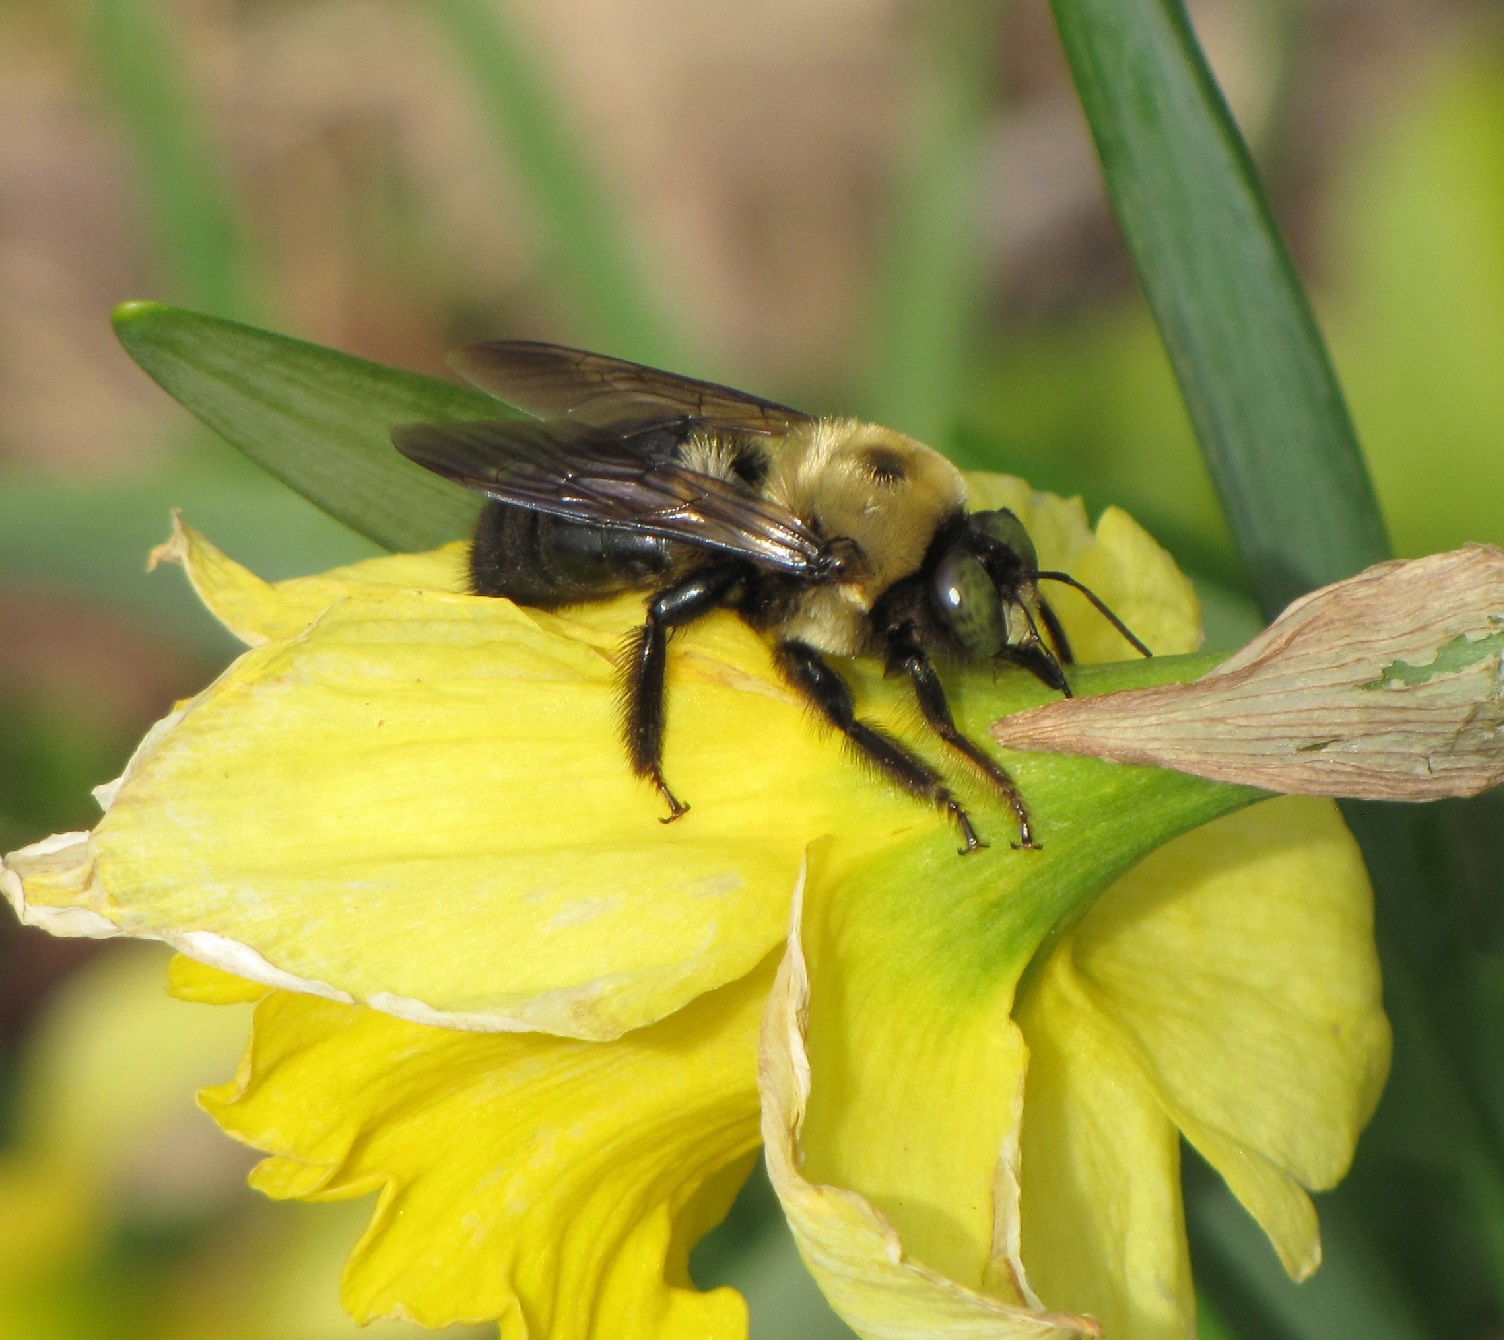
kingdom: Animalia
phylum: Arthropoda
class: Insecta
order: Hymenoptera
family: Apidae
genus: Xylocopa
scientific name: Xylocopa virginica
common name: Carpenter bee
